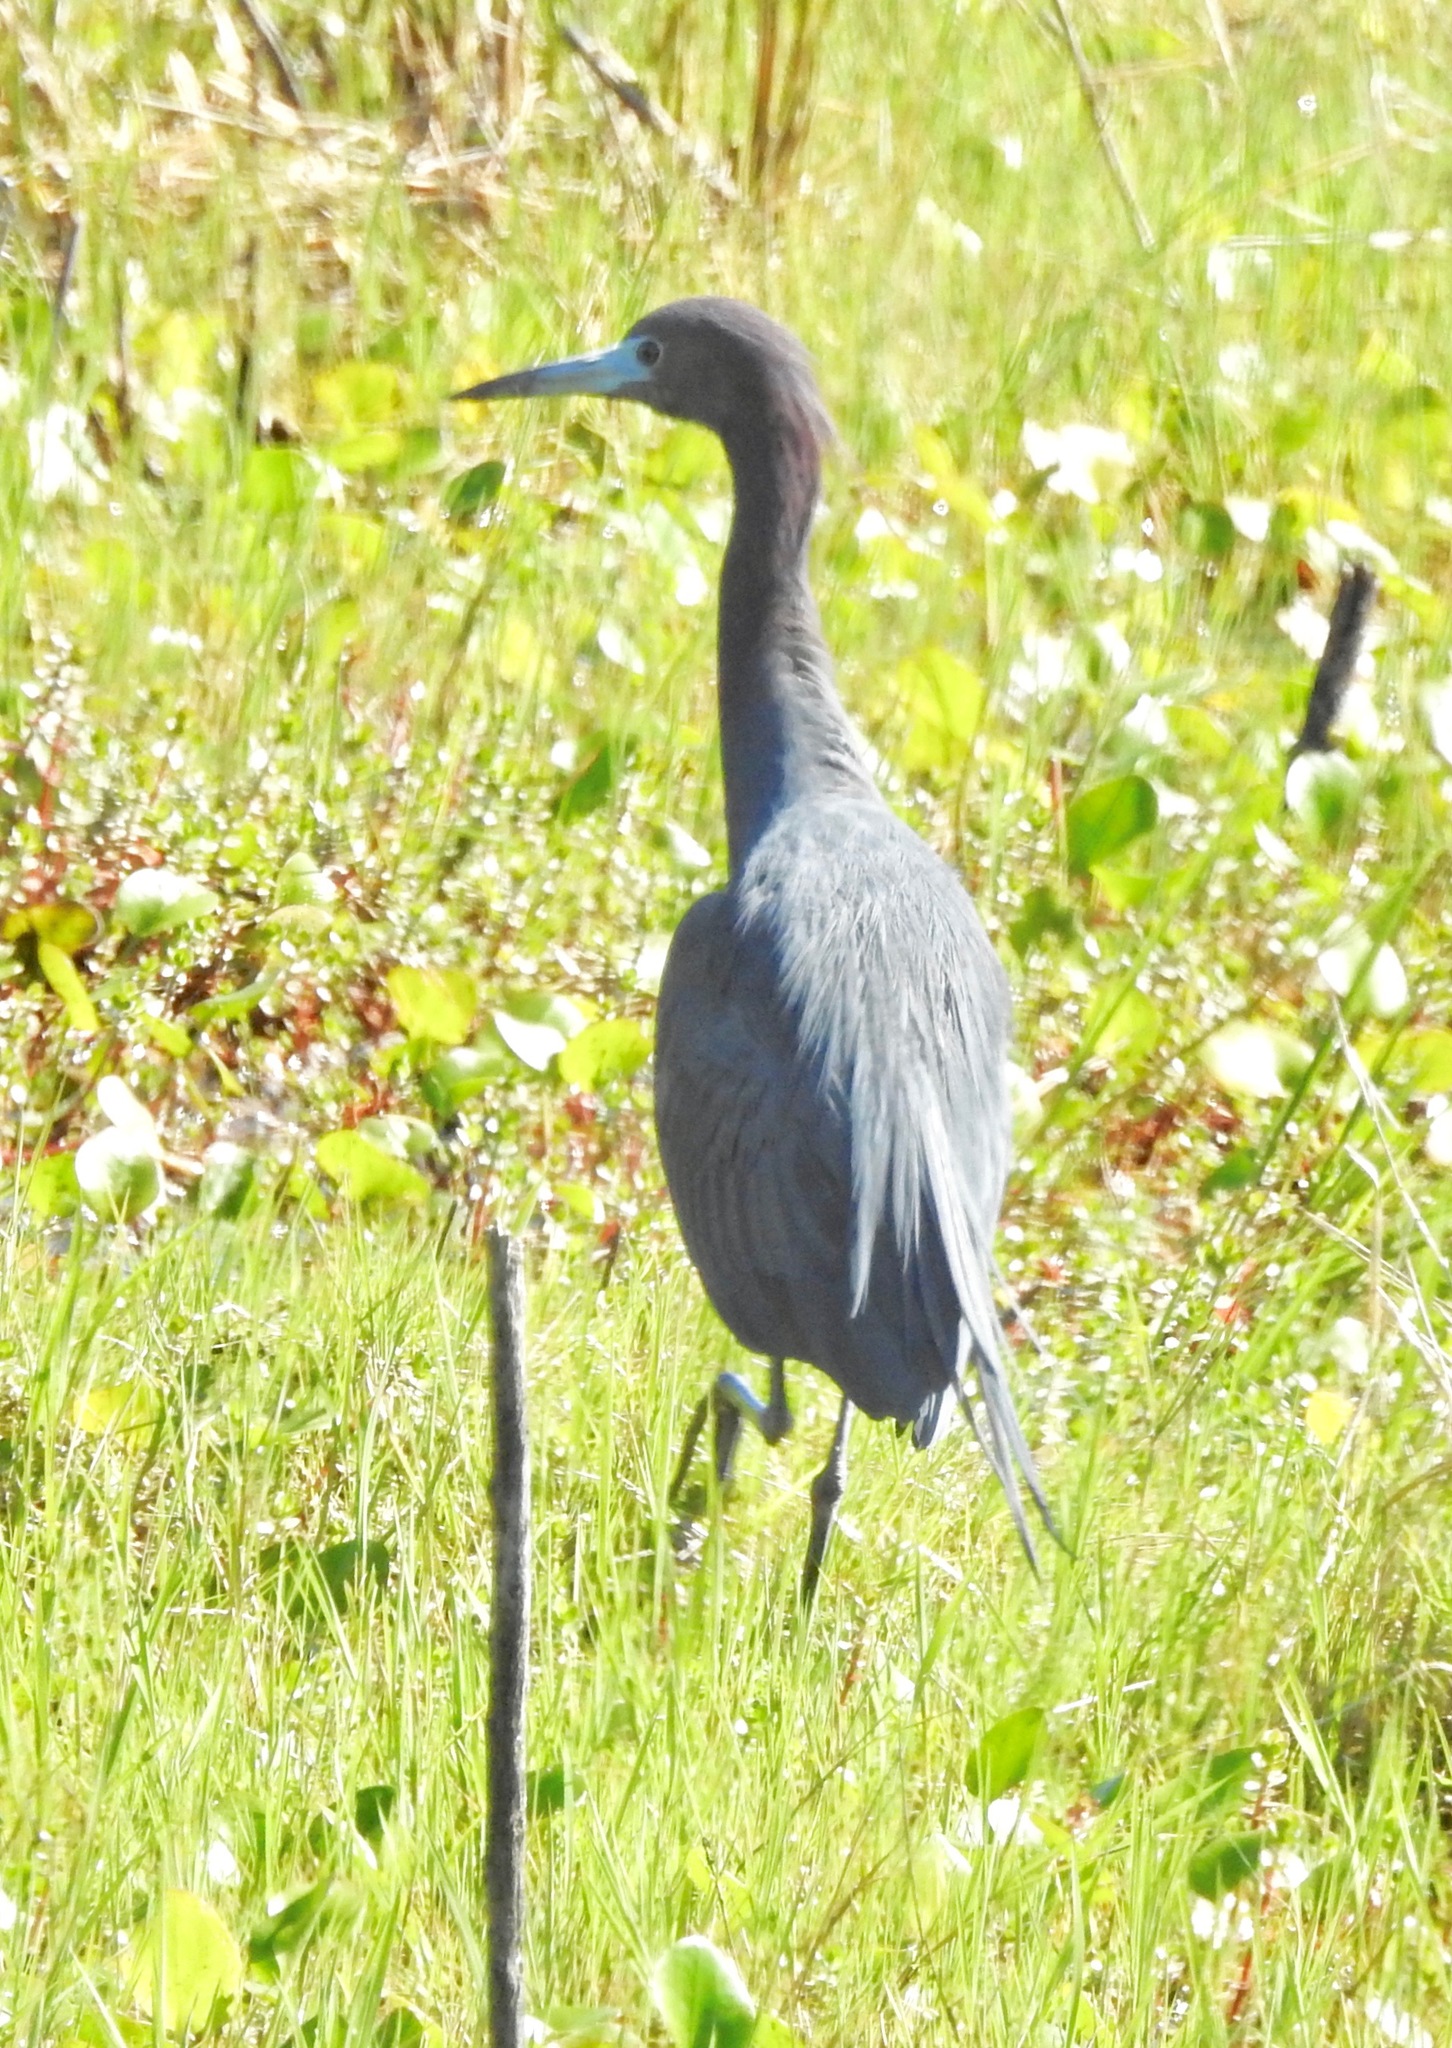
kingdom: Animalia
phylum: Chordata
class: Aves
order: Pelecaniformes
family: Ardeidae
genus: Egretta
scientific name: Egretta caerulea
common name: Little blue heron
